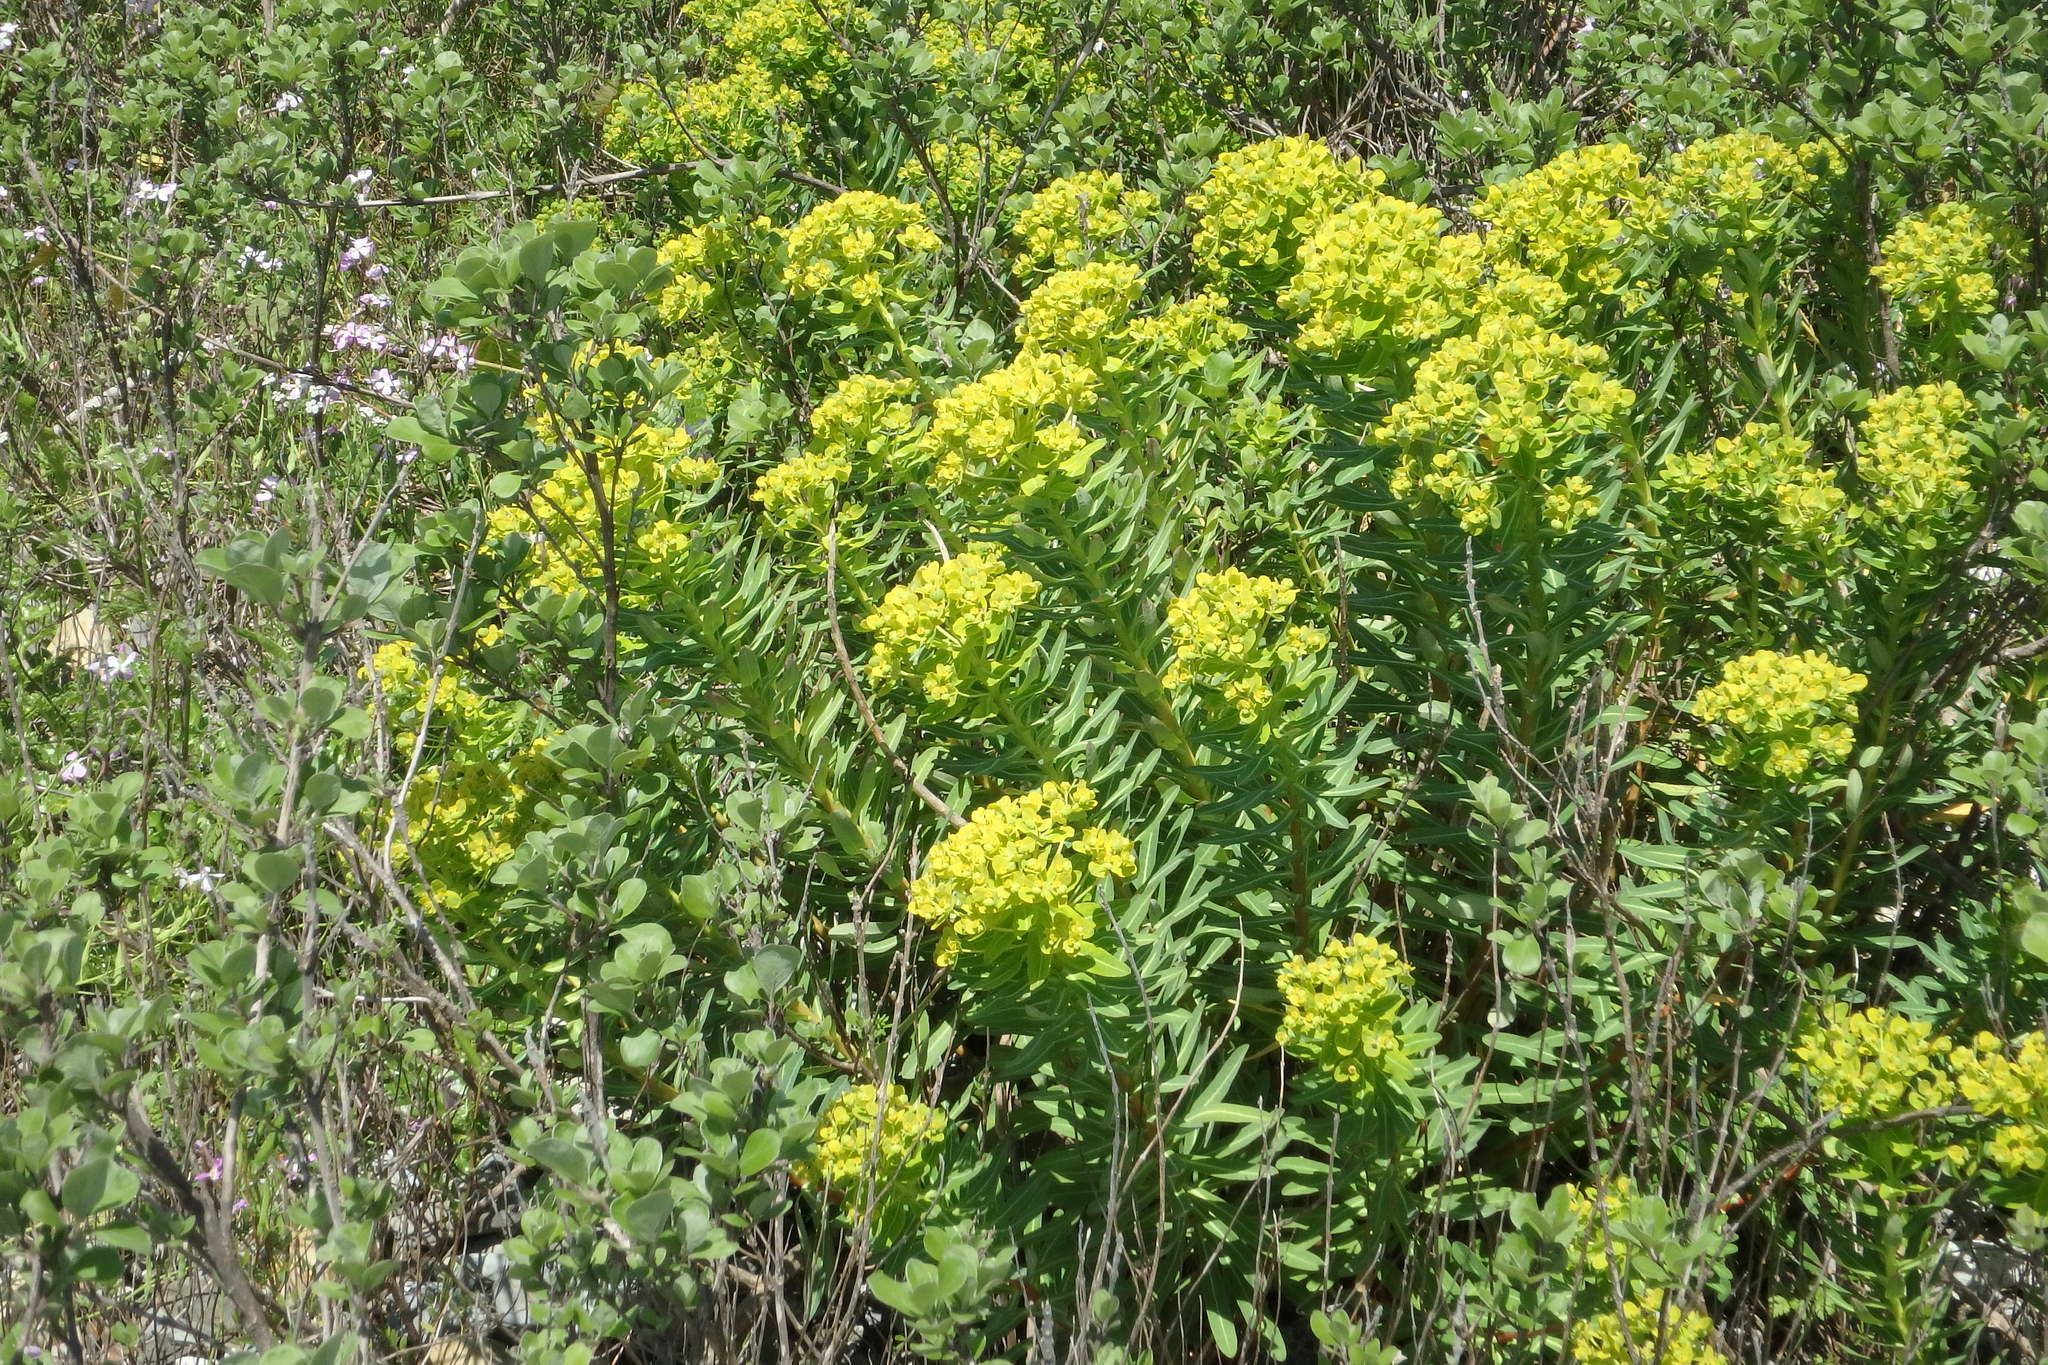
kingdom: Plantae
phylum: Tracheophyta
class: Magnoliopsida
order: Malpighiales
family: Euphorbiaceae
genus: Euphorbia
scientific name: Euphorbia jolkinii
